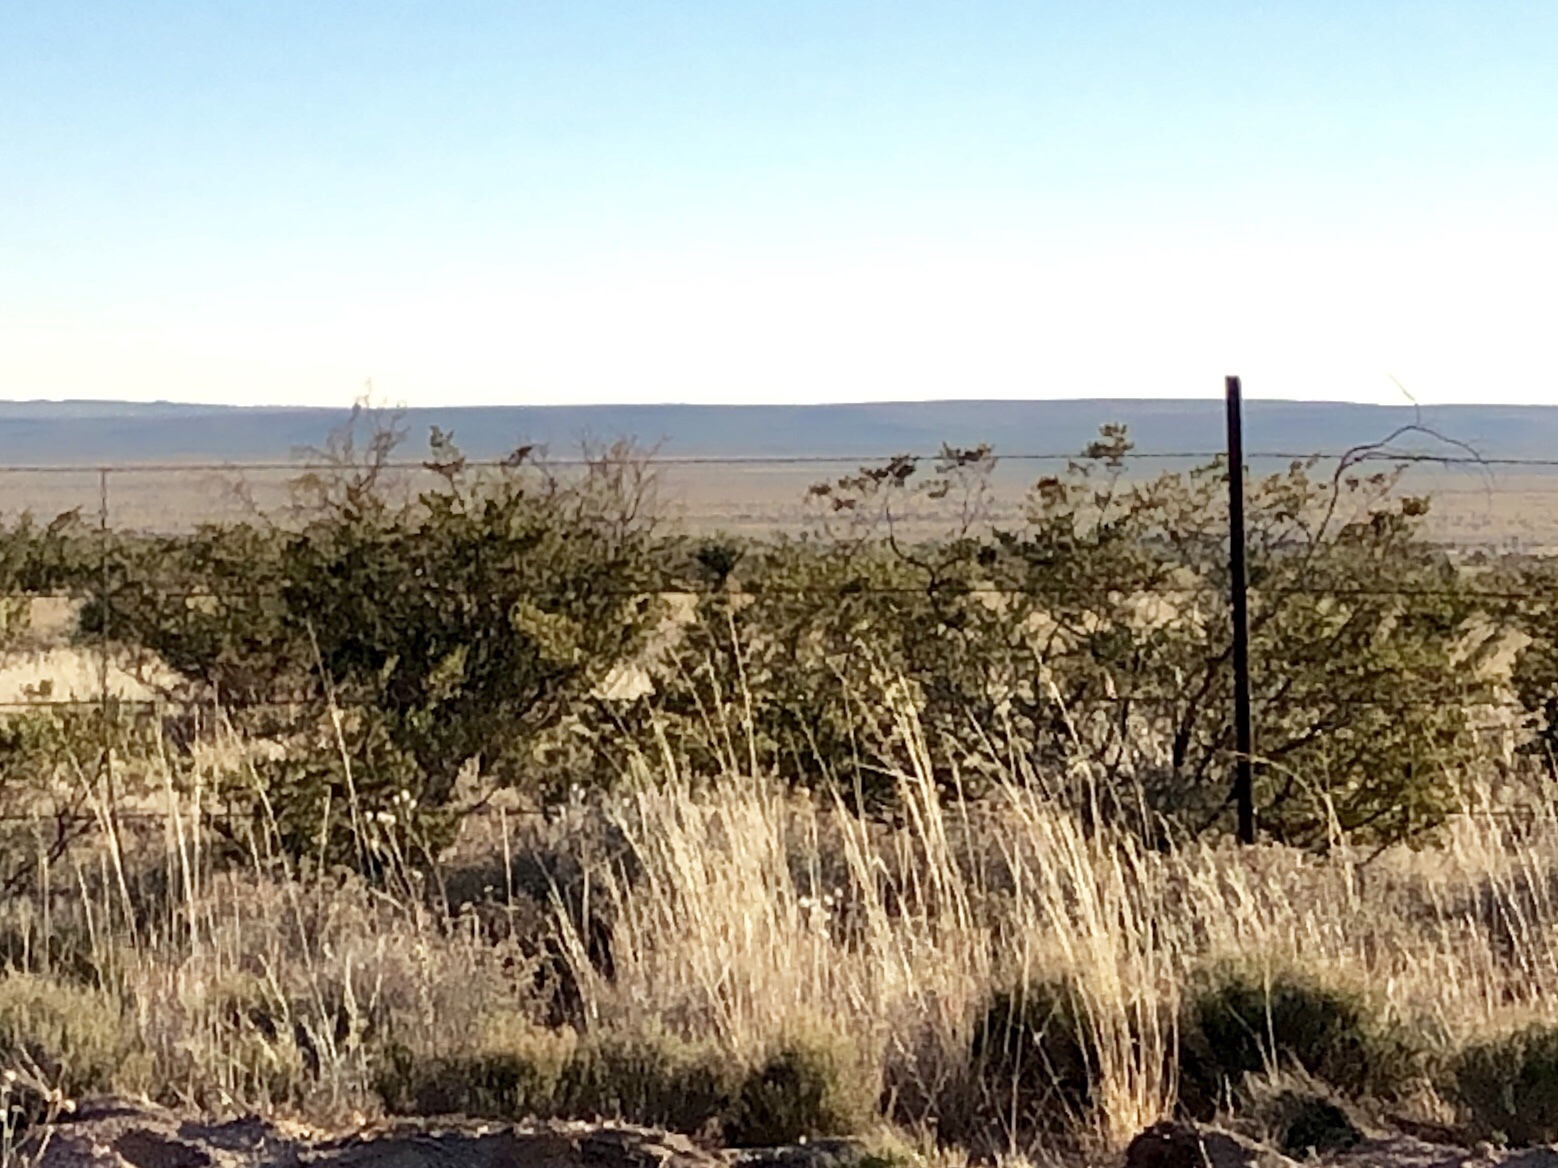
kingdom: Plantae
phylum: Tracheophyta
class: Magnoliopsida
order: Zygophyllales
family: Zygophyllaceae
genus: Larrea
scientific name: Larrea tridentata
